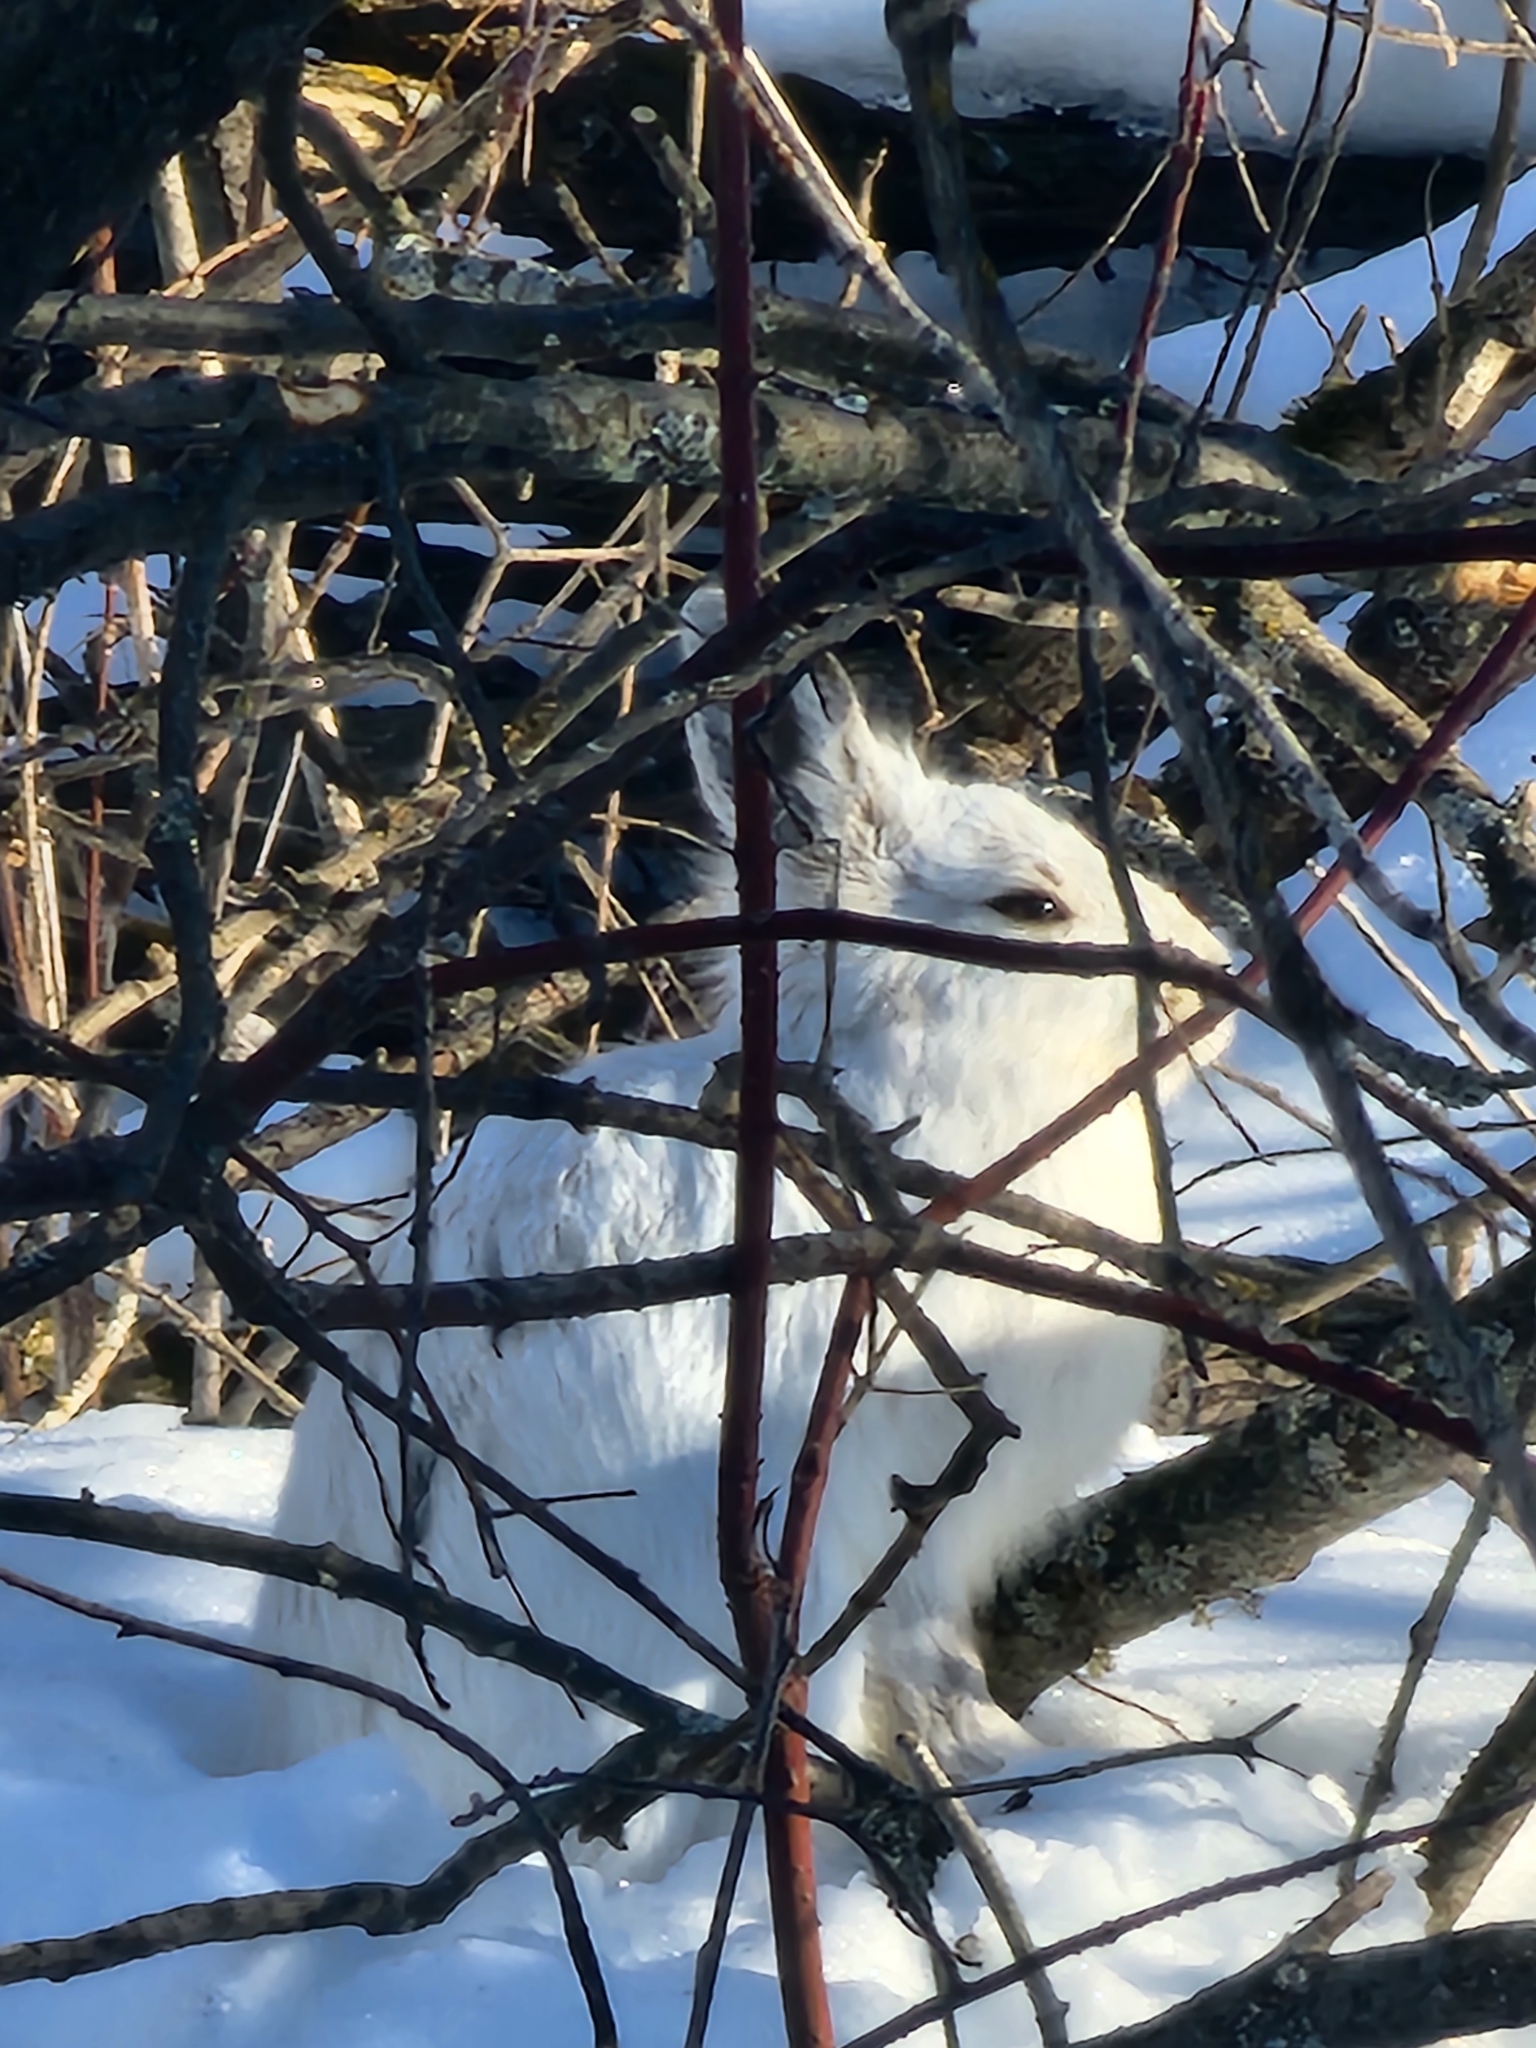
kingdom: Animalia
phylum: Chordata
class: Mammalia
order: Lagomorpha
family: Leporidae
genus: Lepus
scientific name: Lepus americanus
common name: Snowshoe hare
